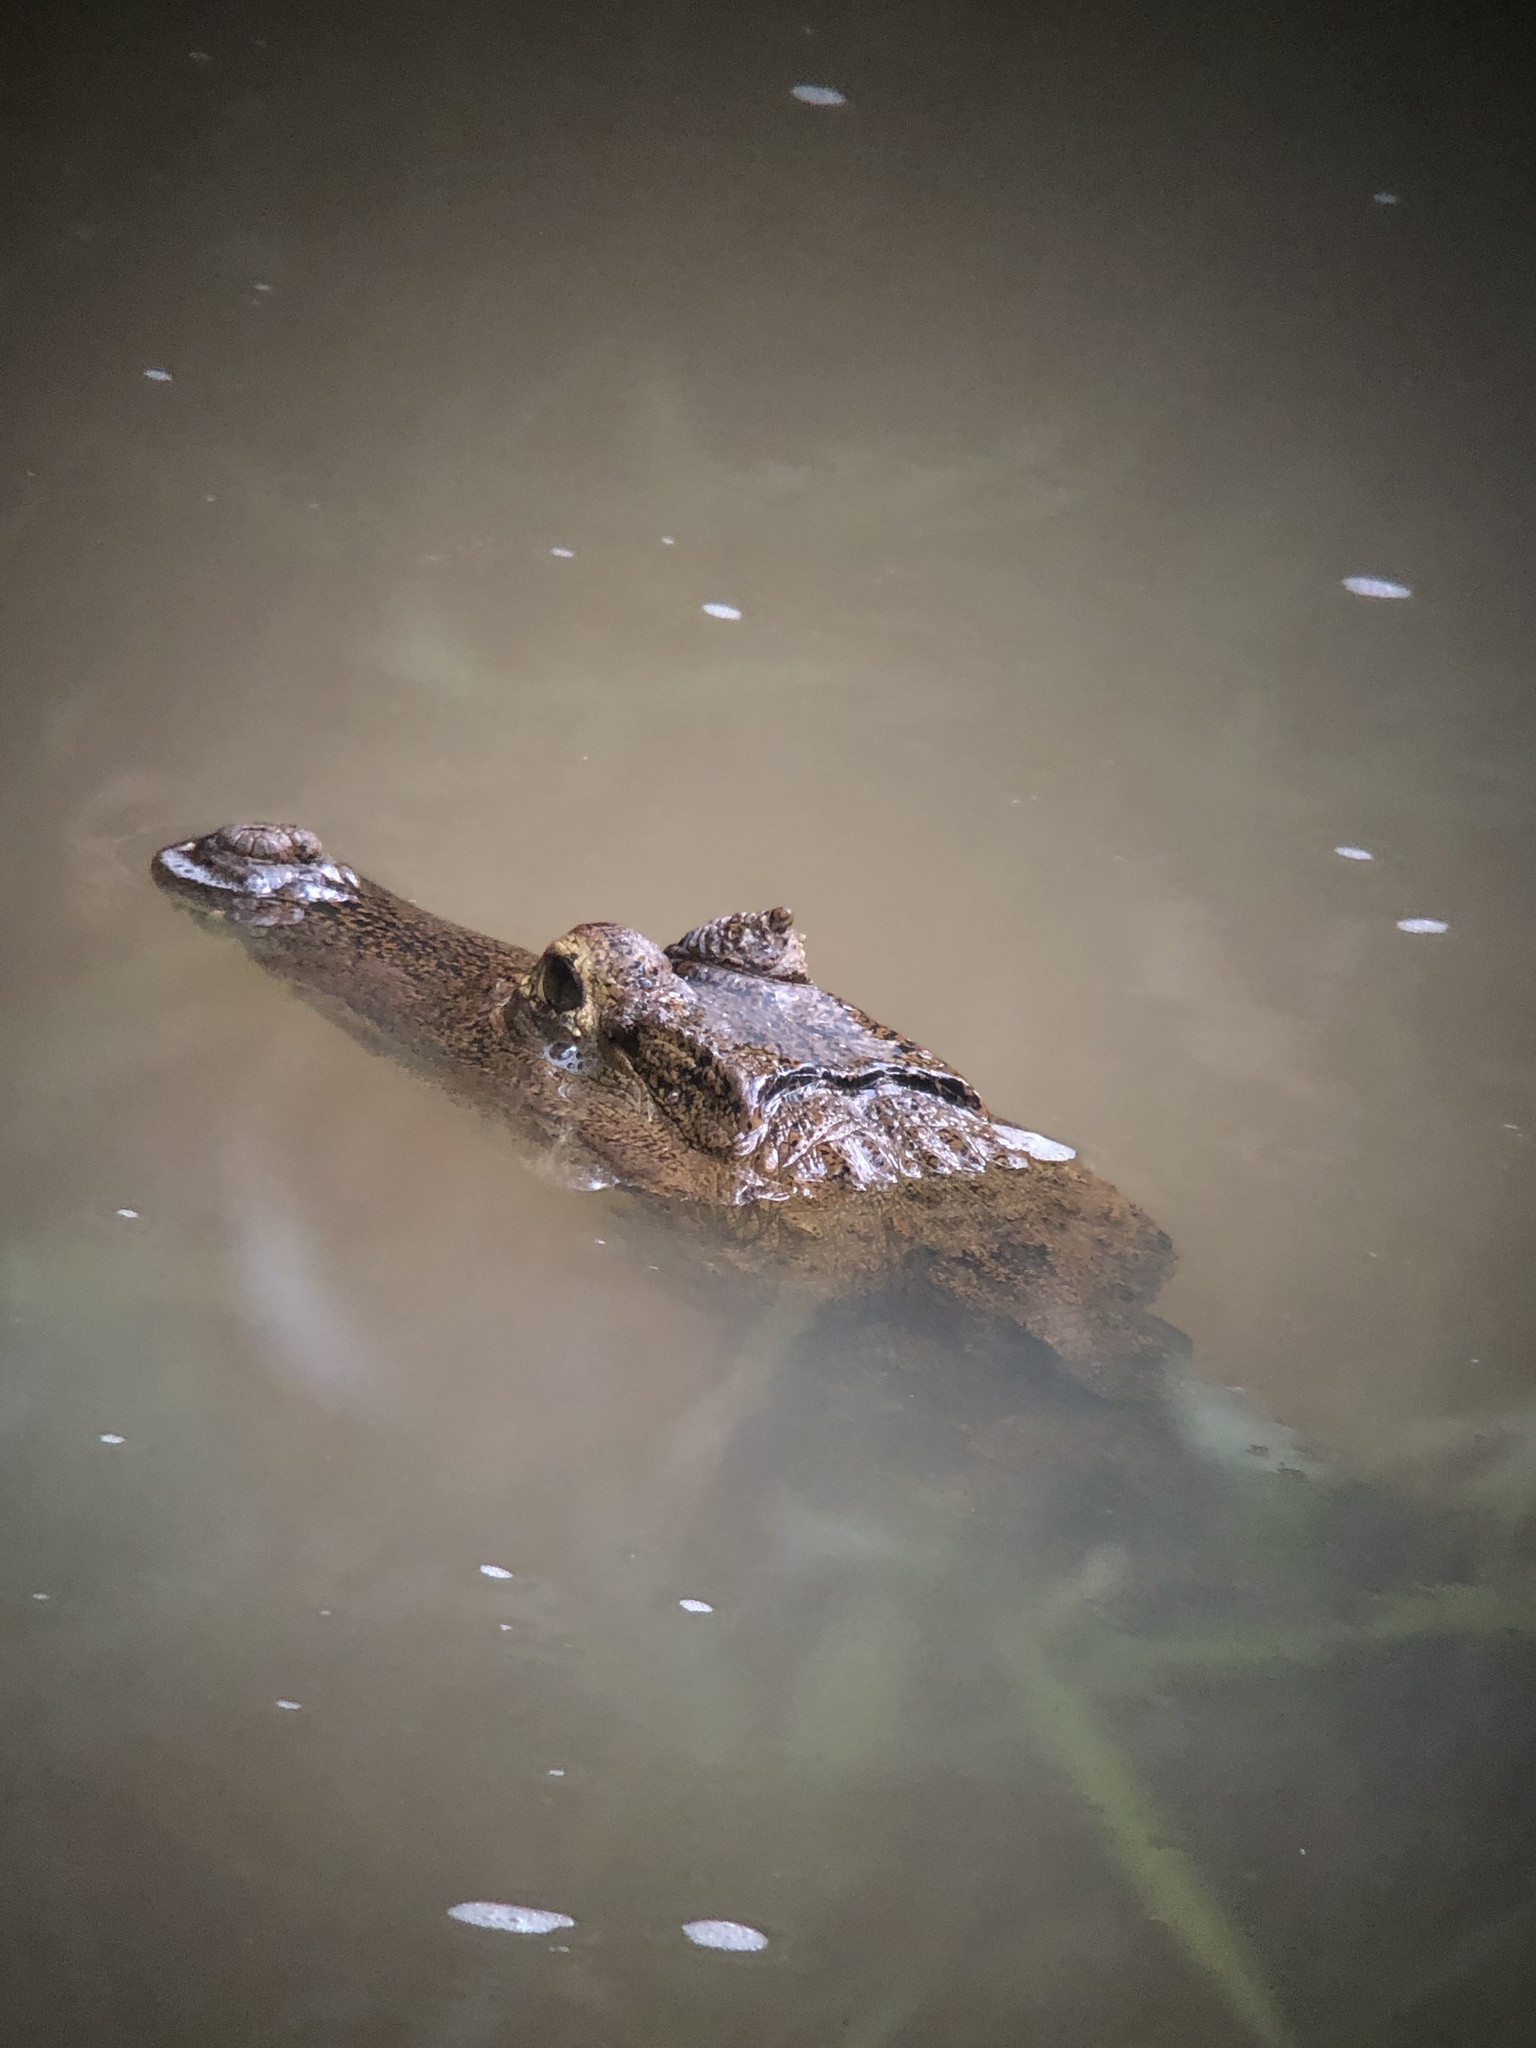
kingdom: Animalia
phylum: Chordata
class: Crocodylia
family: Alligatoridae
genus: Caiman
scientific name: Caiman crocodilus
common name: Common caiman
